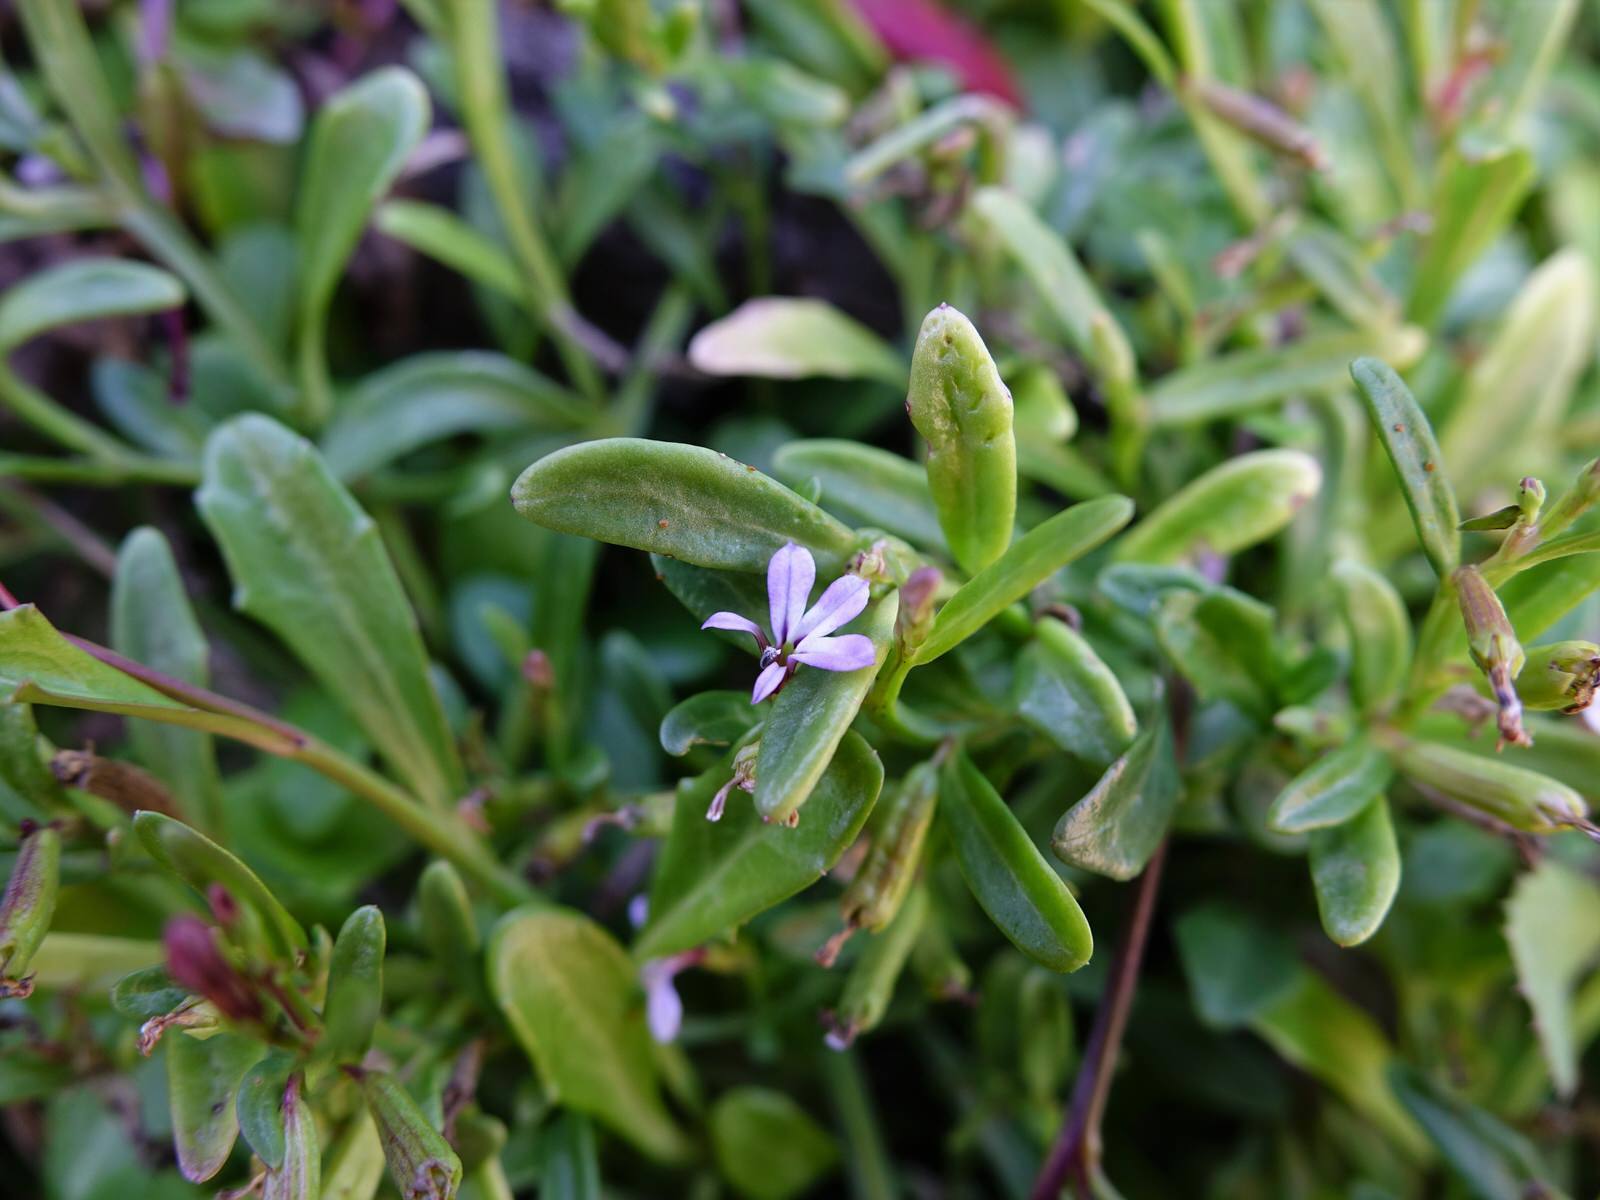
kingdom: Plantae
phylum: Tracheophyta
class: Magnoliopsida
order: Asterales
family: Campanulaceae
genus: Lobelia
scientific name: Lobelia anceps
